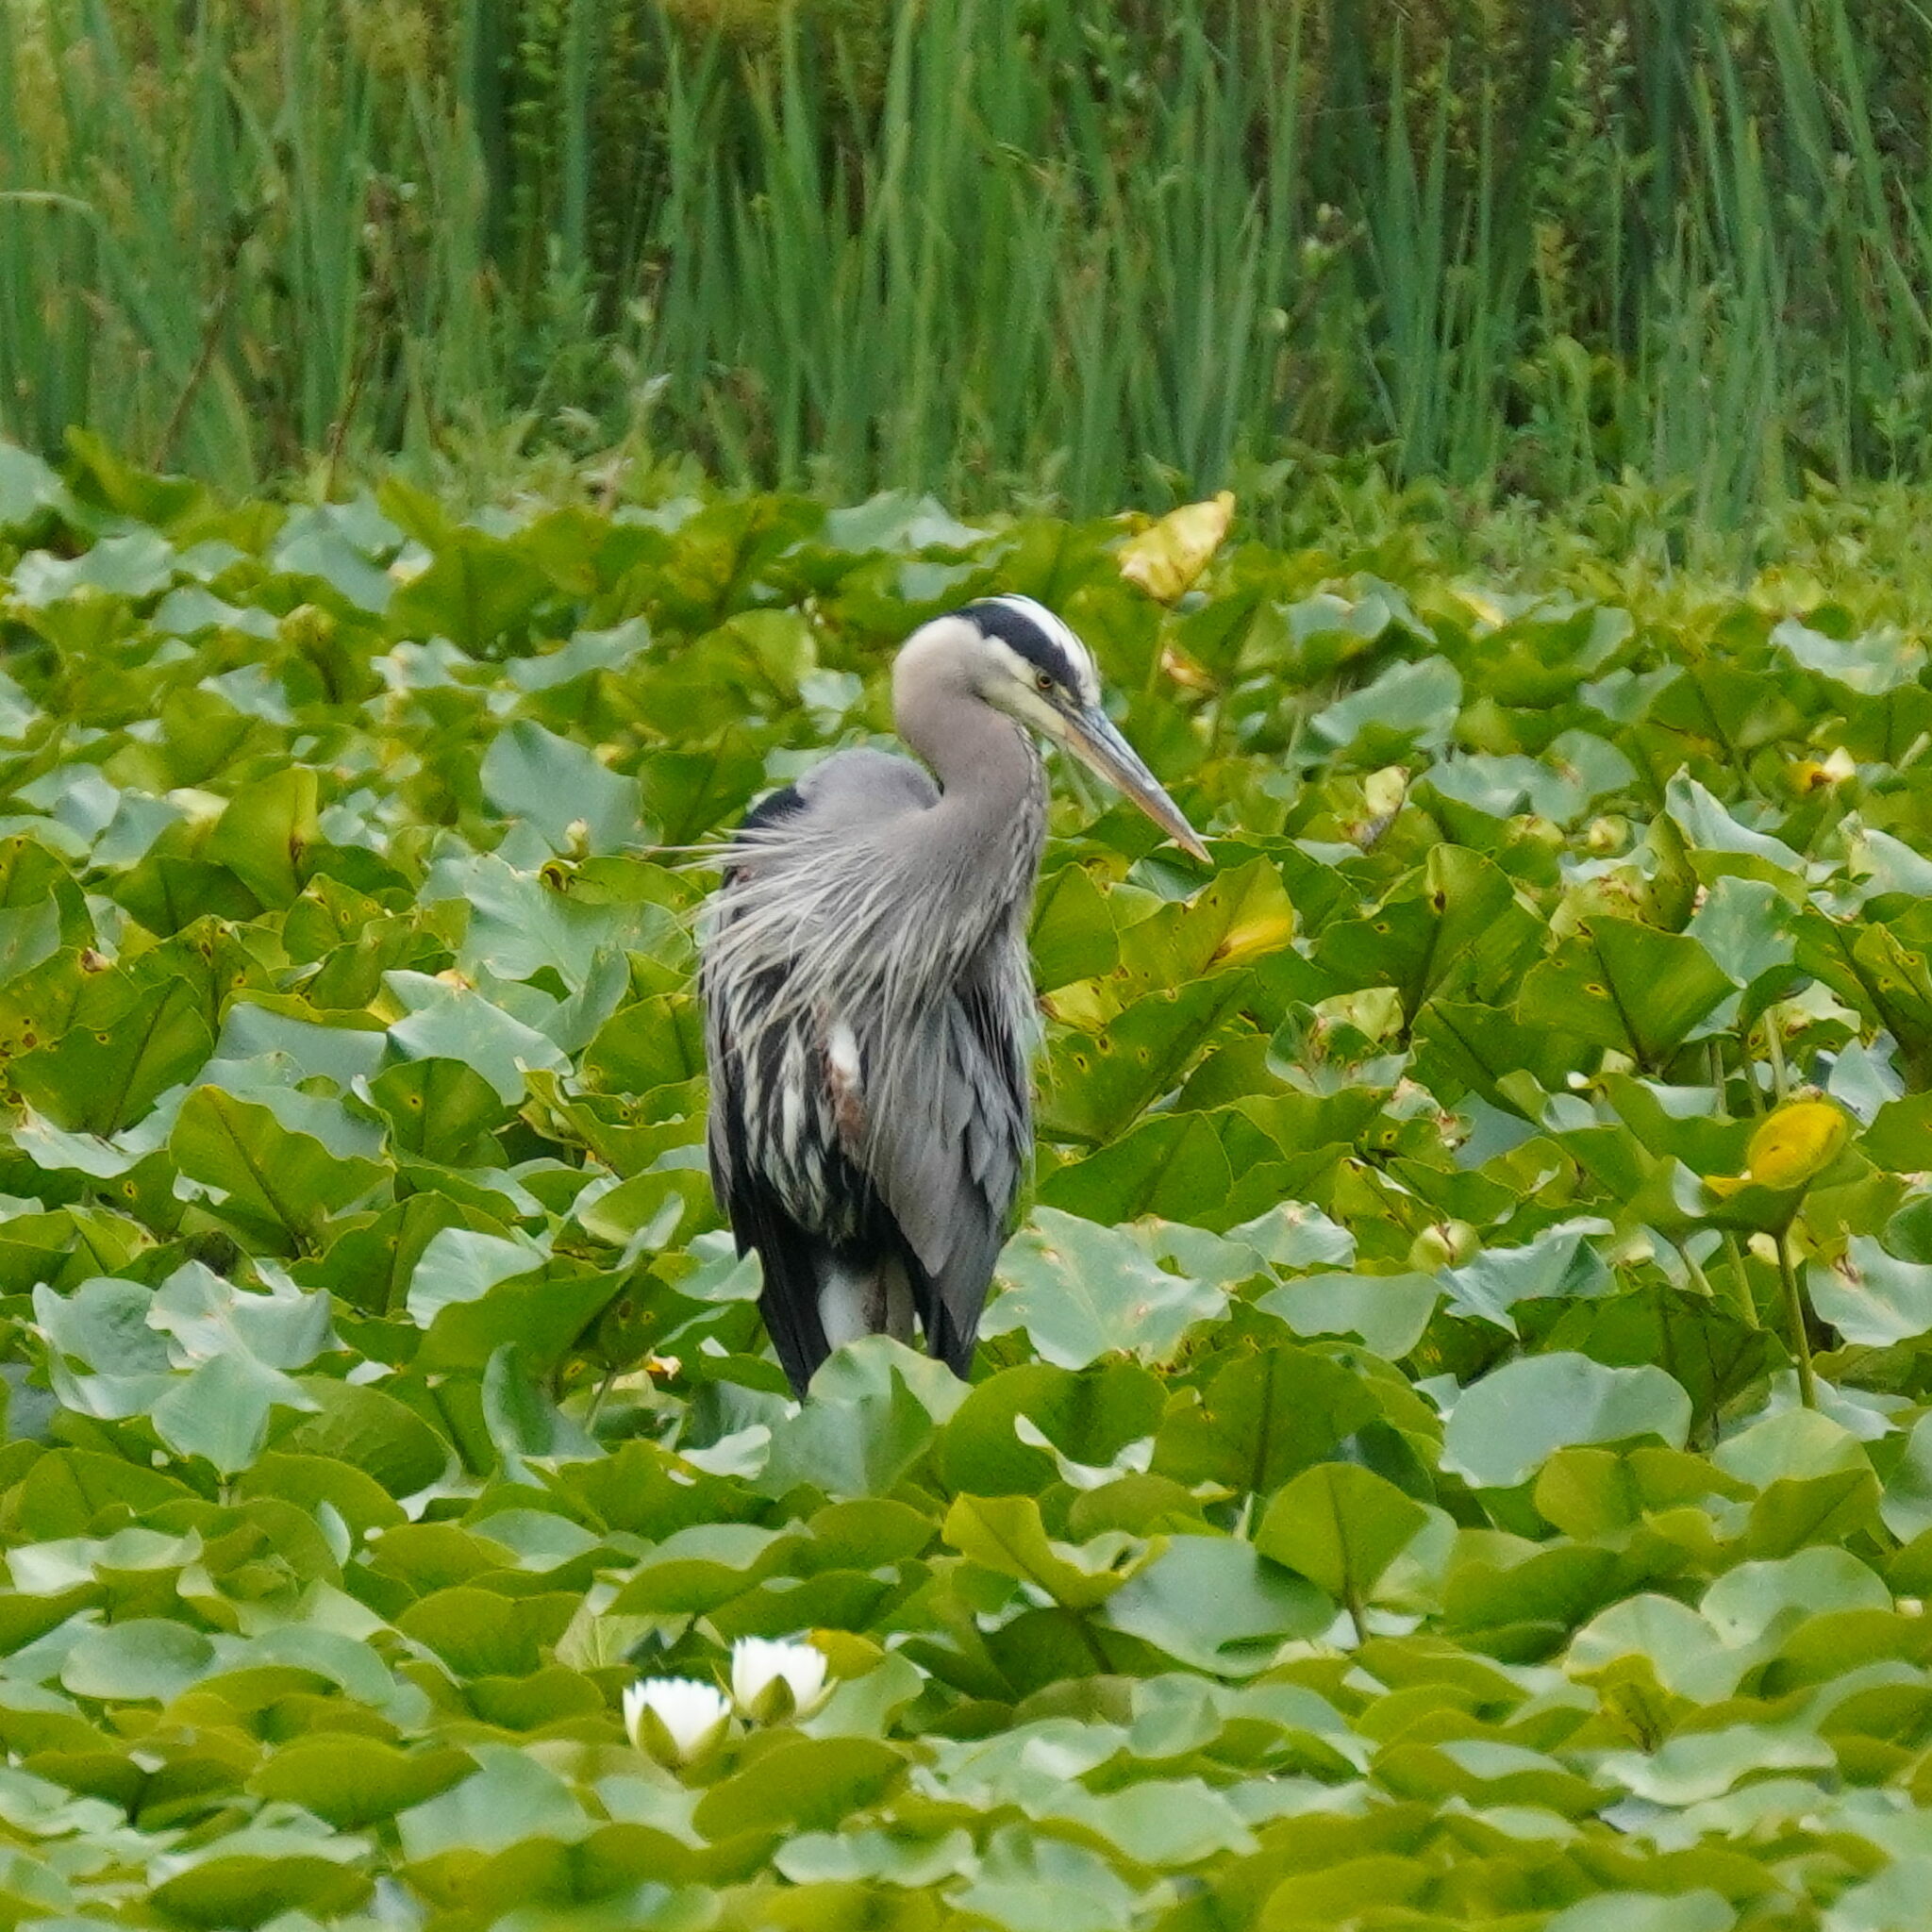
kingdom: Animalia
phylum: Chordata
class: Aves
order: Pelecaniformes
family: Ardeidae
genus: Ardea
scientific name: Ardea herodias
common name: Great blue heron
